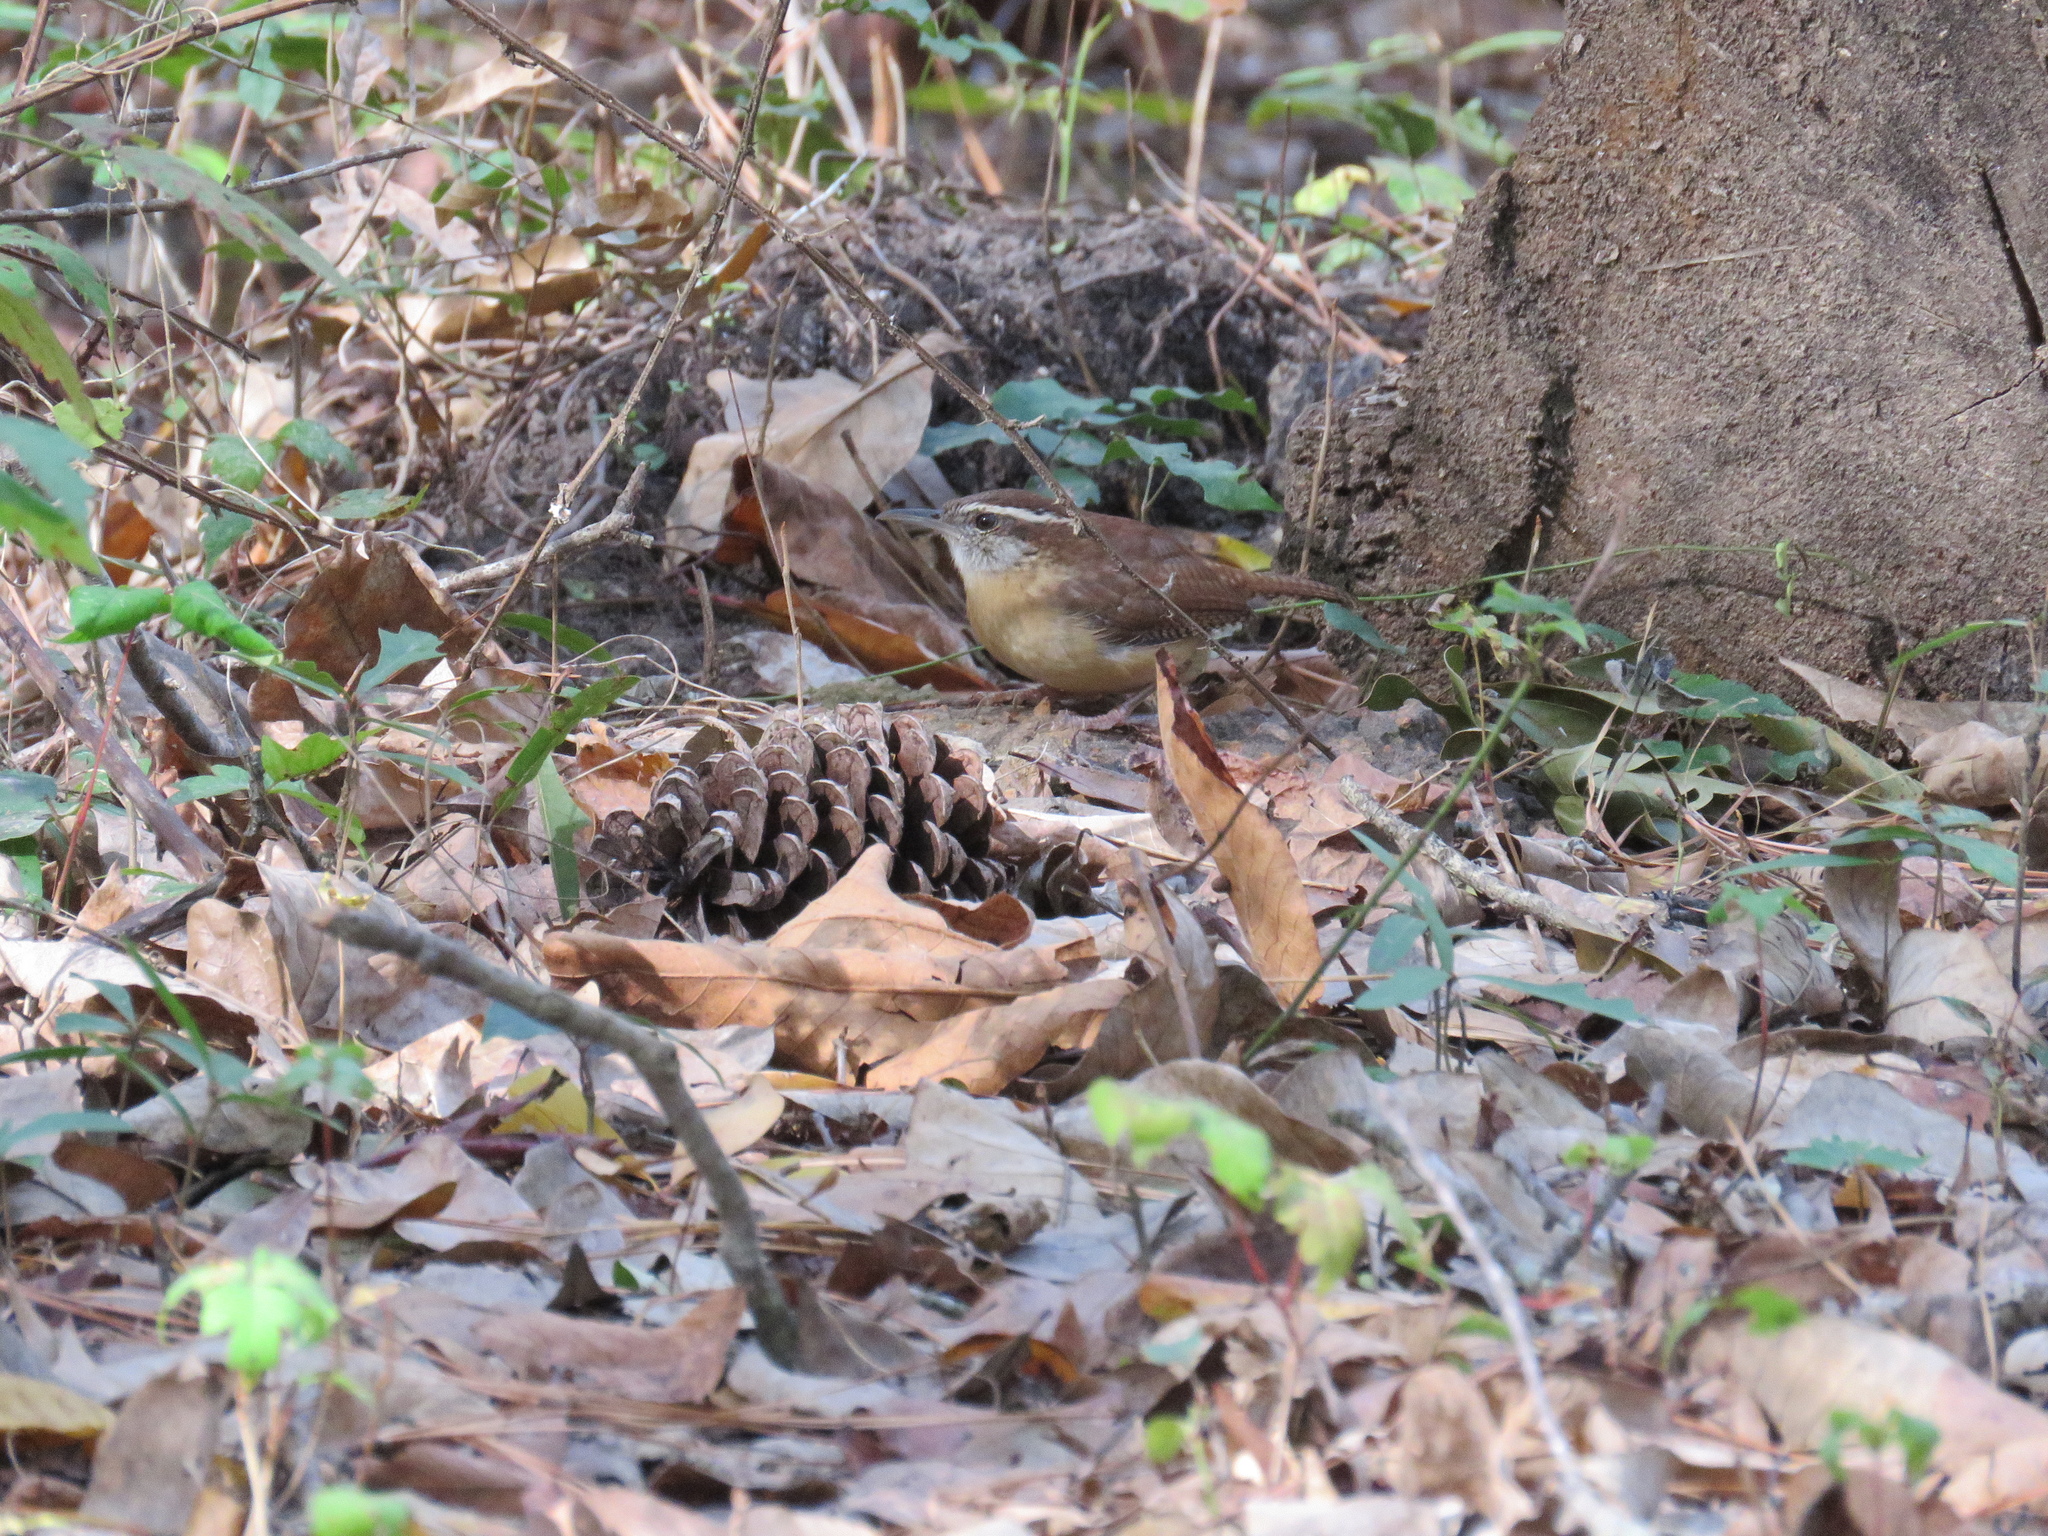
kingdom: Animalia
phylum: Chordata
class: Aves
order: Passeriformes
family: Troglodytidae
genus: Thryothorus
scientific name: Thryothorus ludovicianus
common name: Carolina wren
